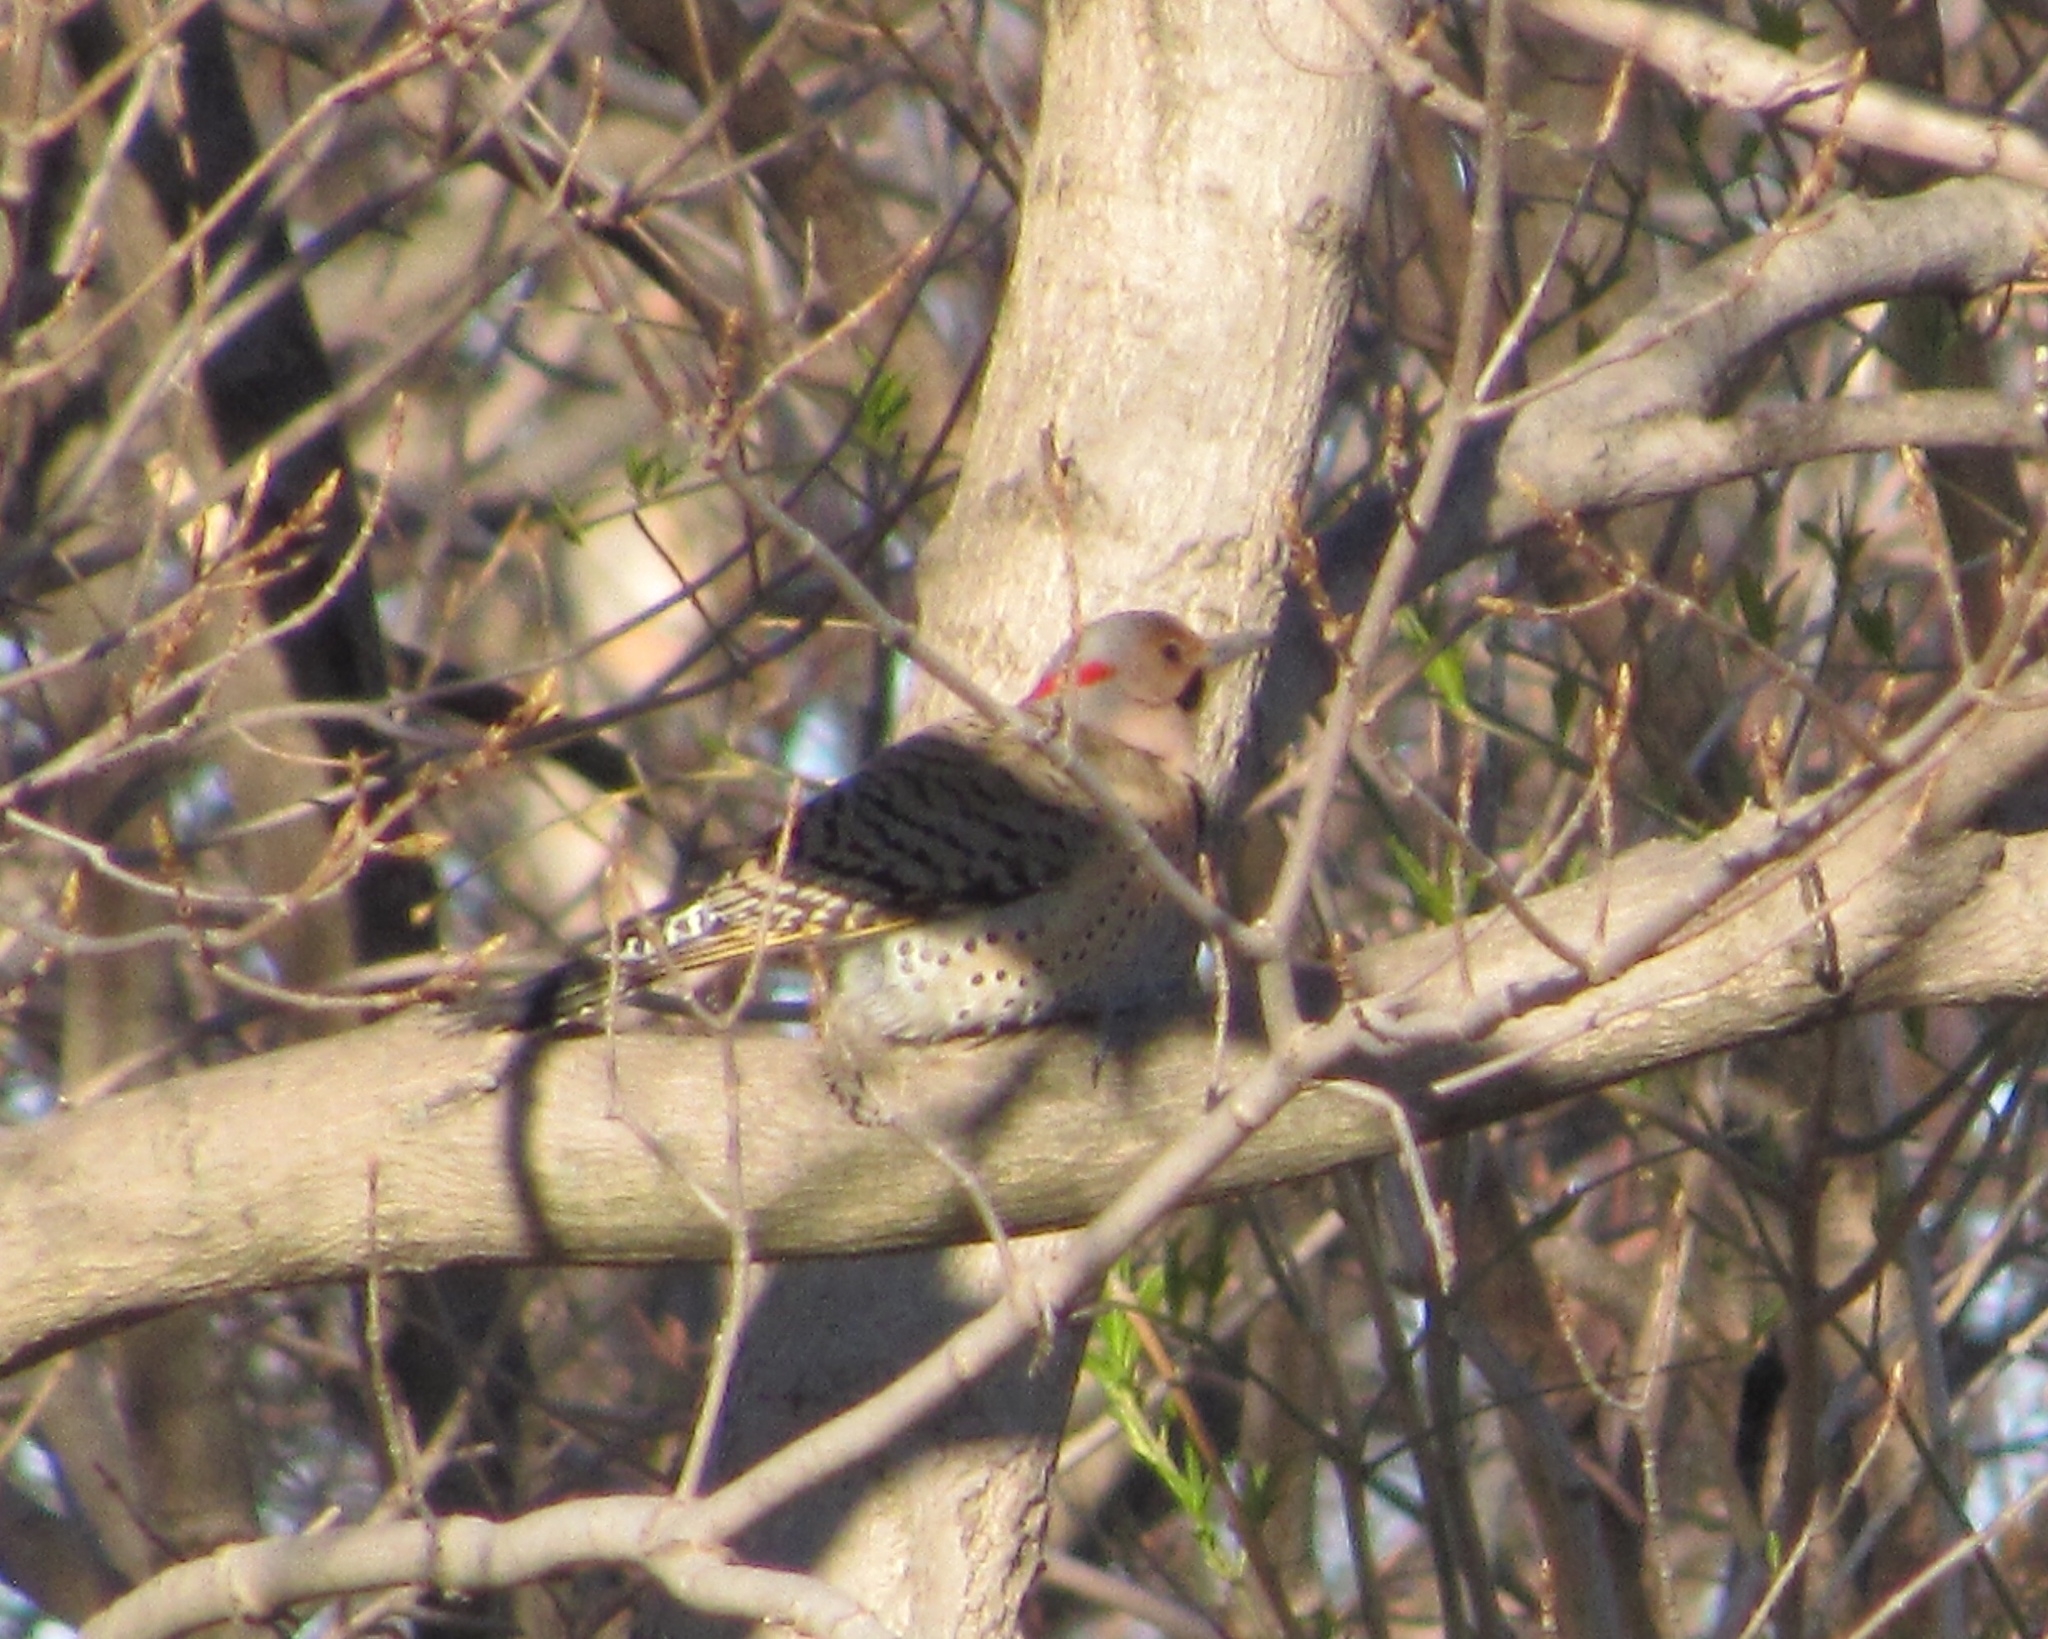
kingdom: Animalia
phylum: Chordata
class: Aves
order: Piciformes
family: Picidae
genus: Colaptes
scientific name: Colaptes auratus
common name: Northern flicker
